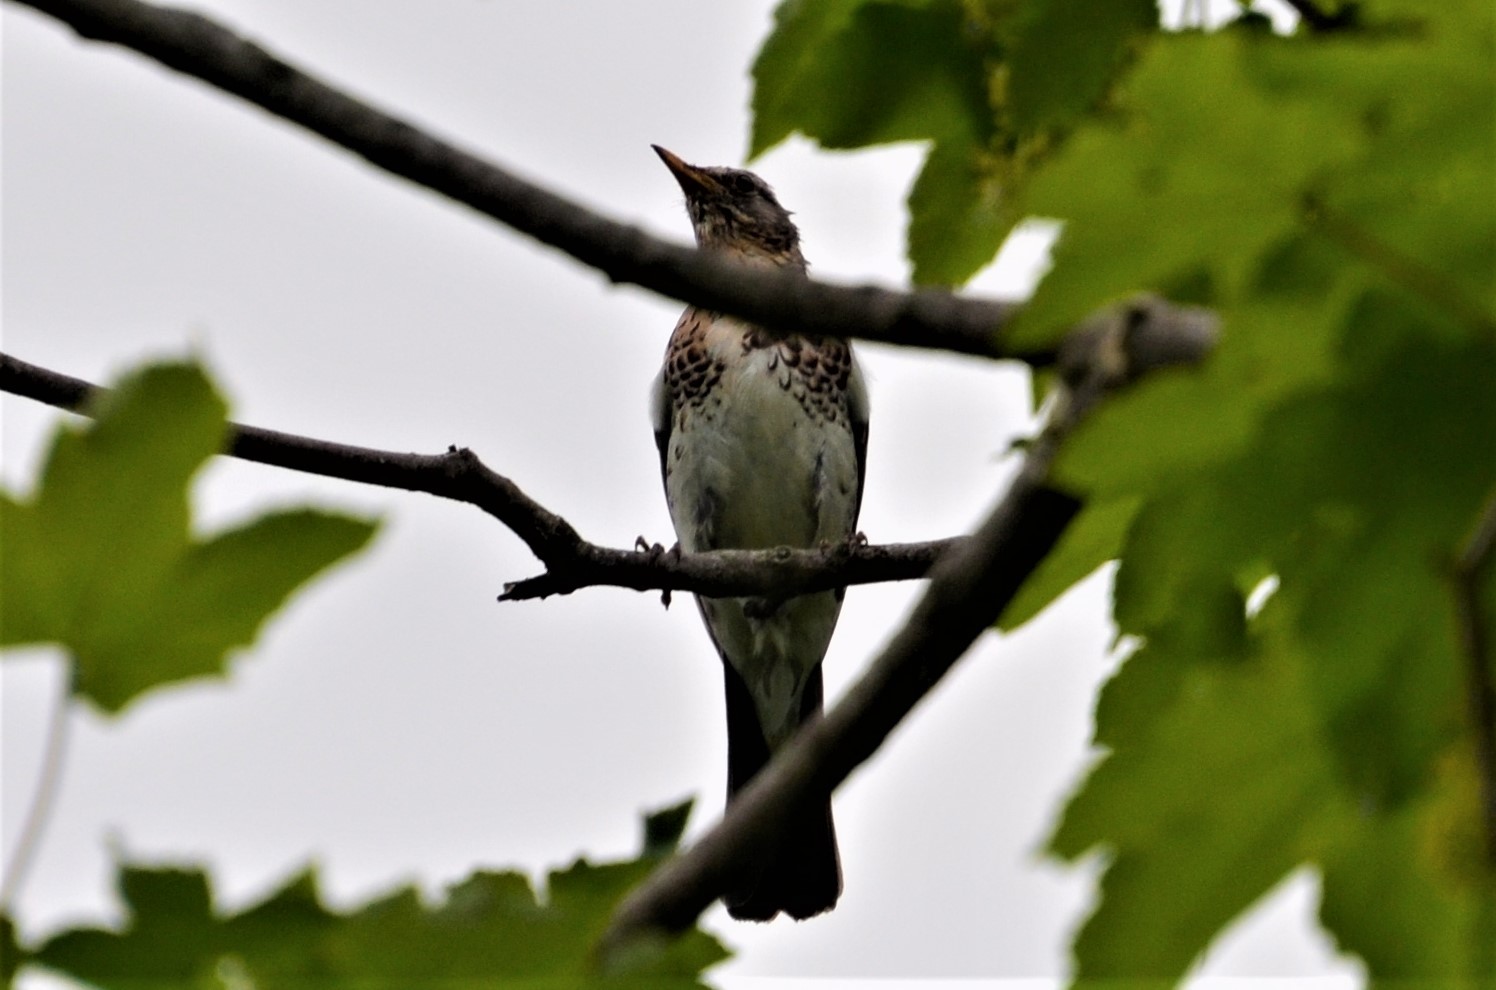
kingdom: Animalia
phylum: Chordata
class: Aves
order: Passeriformes
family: Turdidae
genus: Turdus
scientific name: Turdus pilaris
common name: Fieldfare
